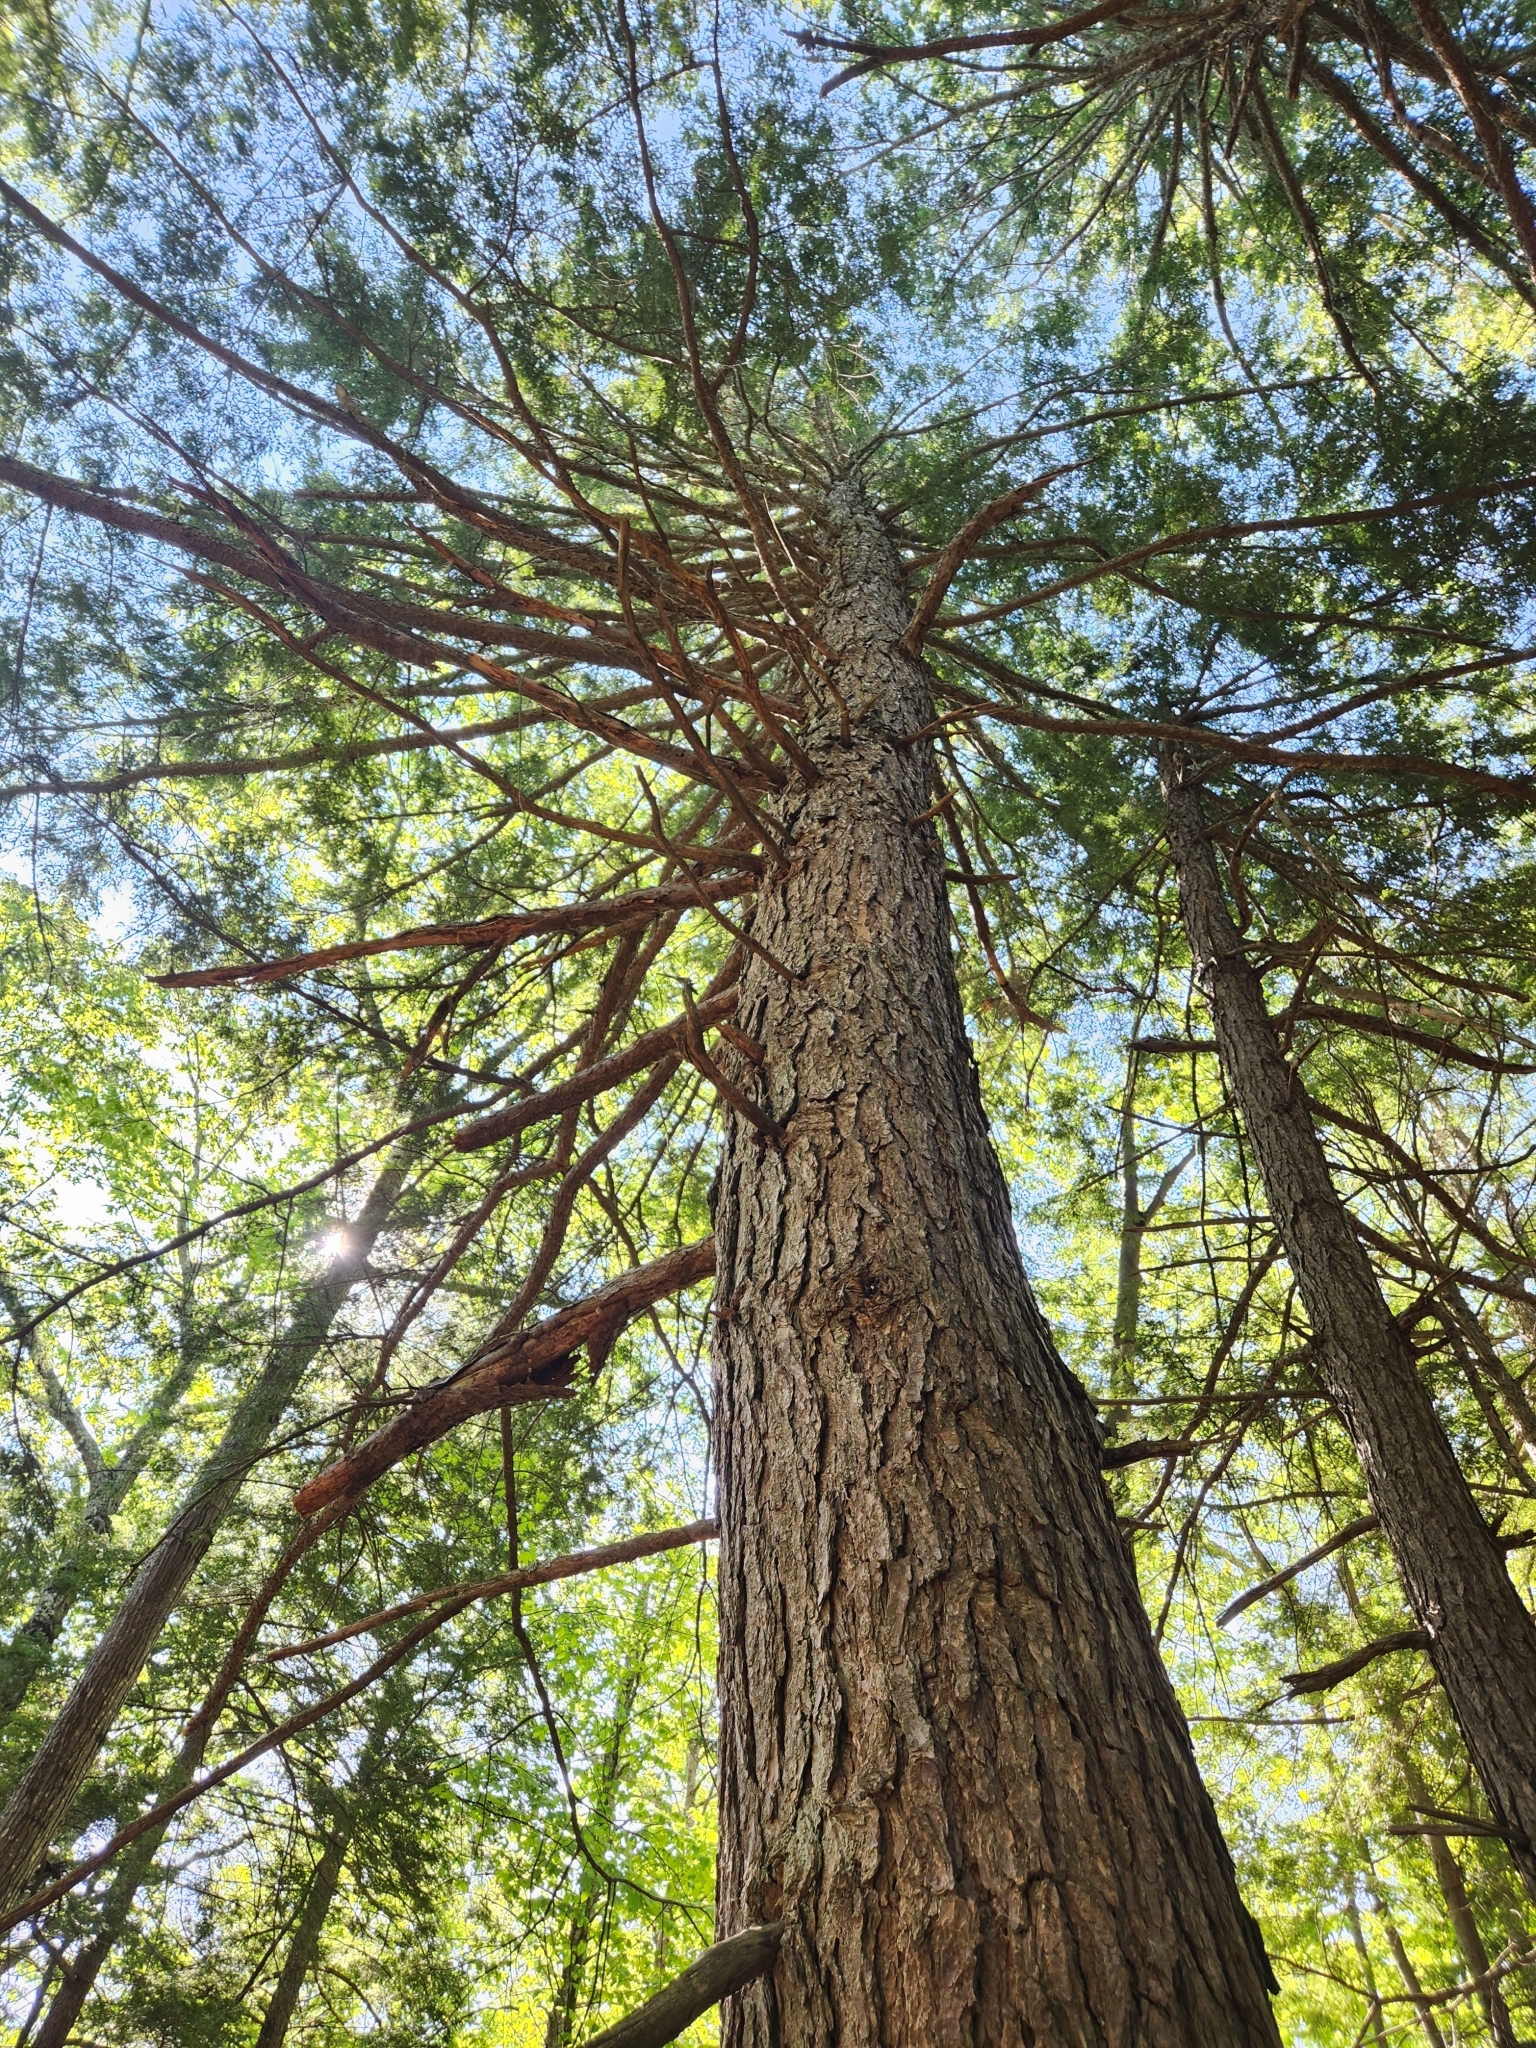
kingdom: Plantae
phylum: Tracheophyta
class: Pinopsida
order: Pinales
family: Pinaceae
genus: Tsuga
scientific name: Tsuga canadensis
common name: Eastern hemlock
